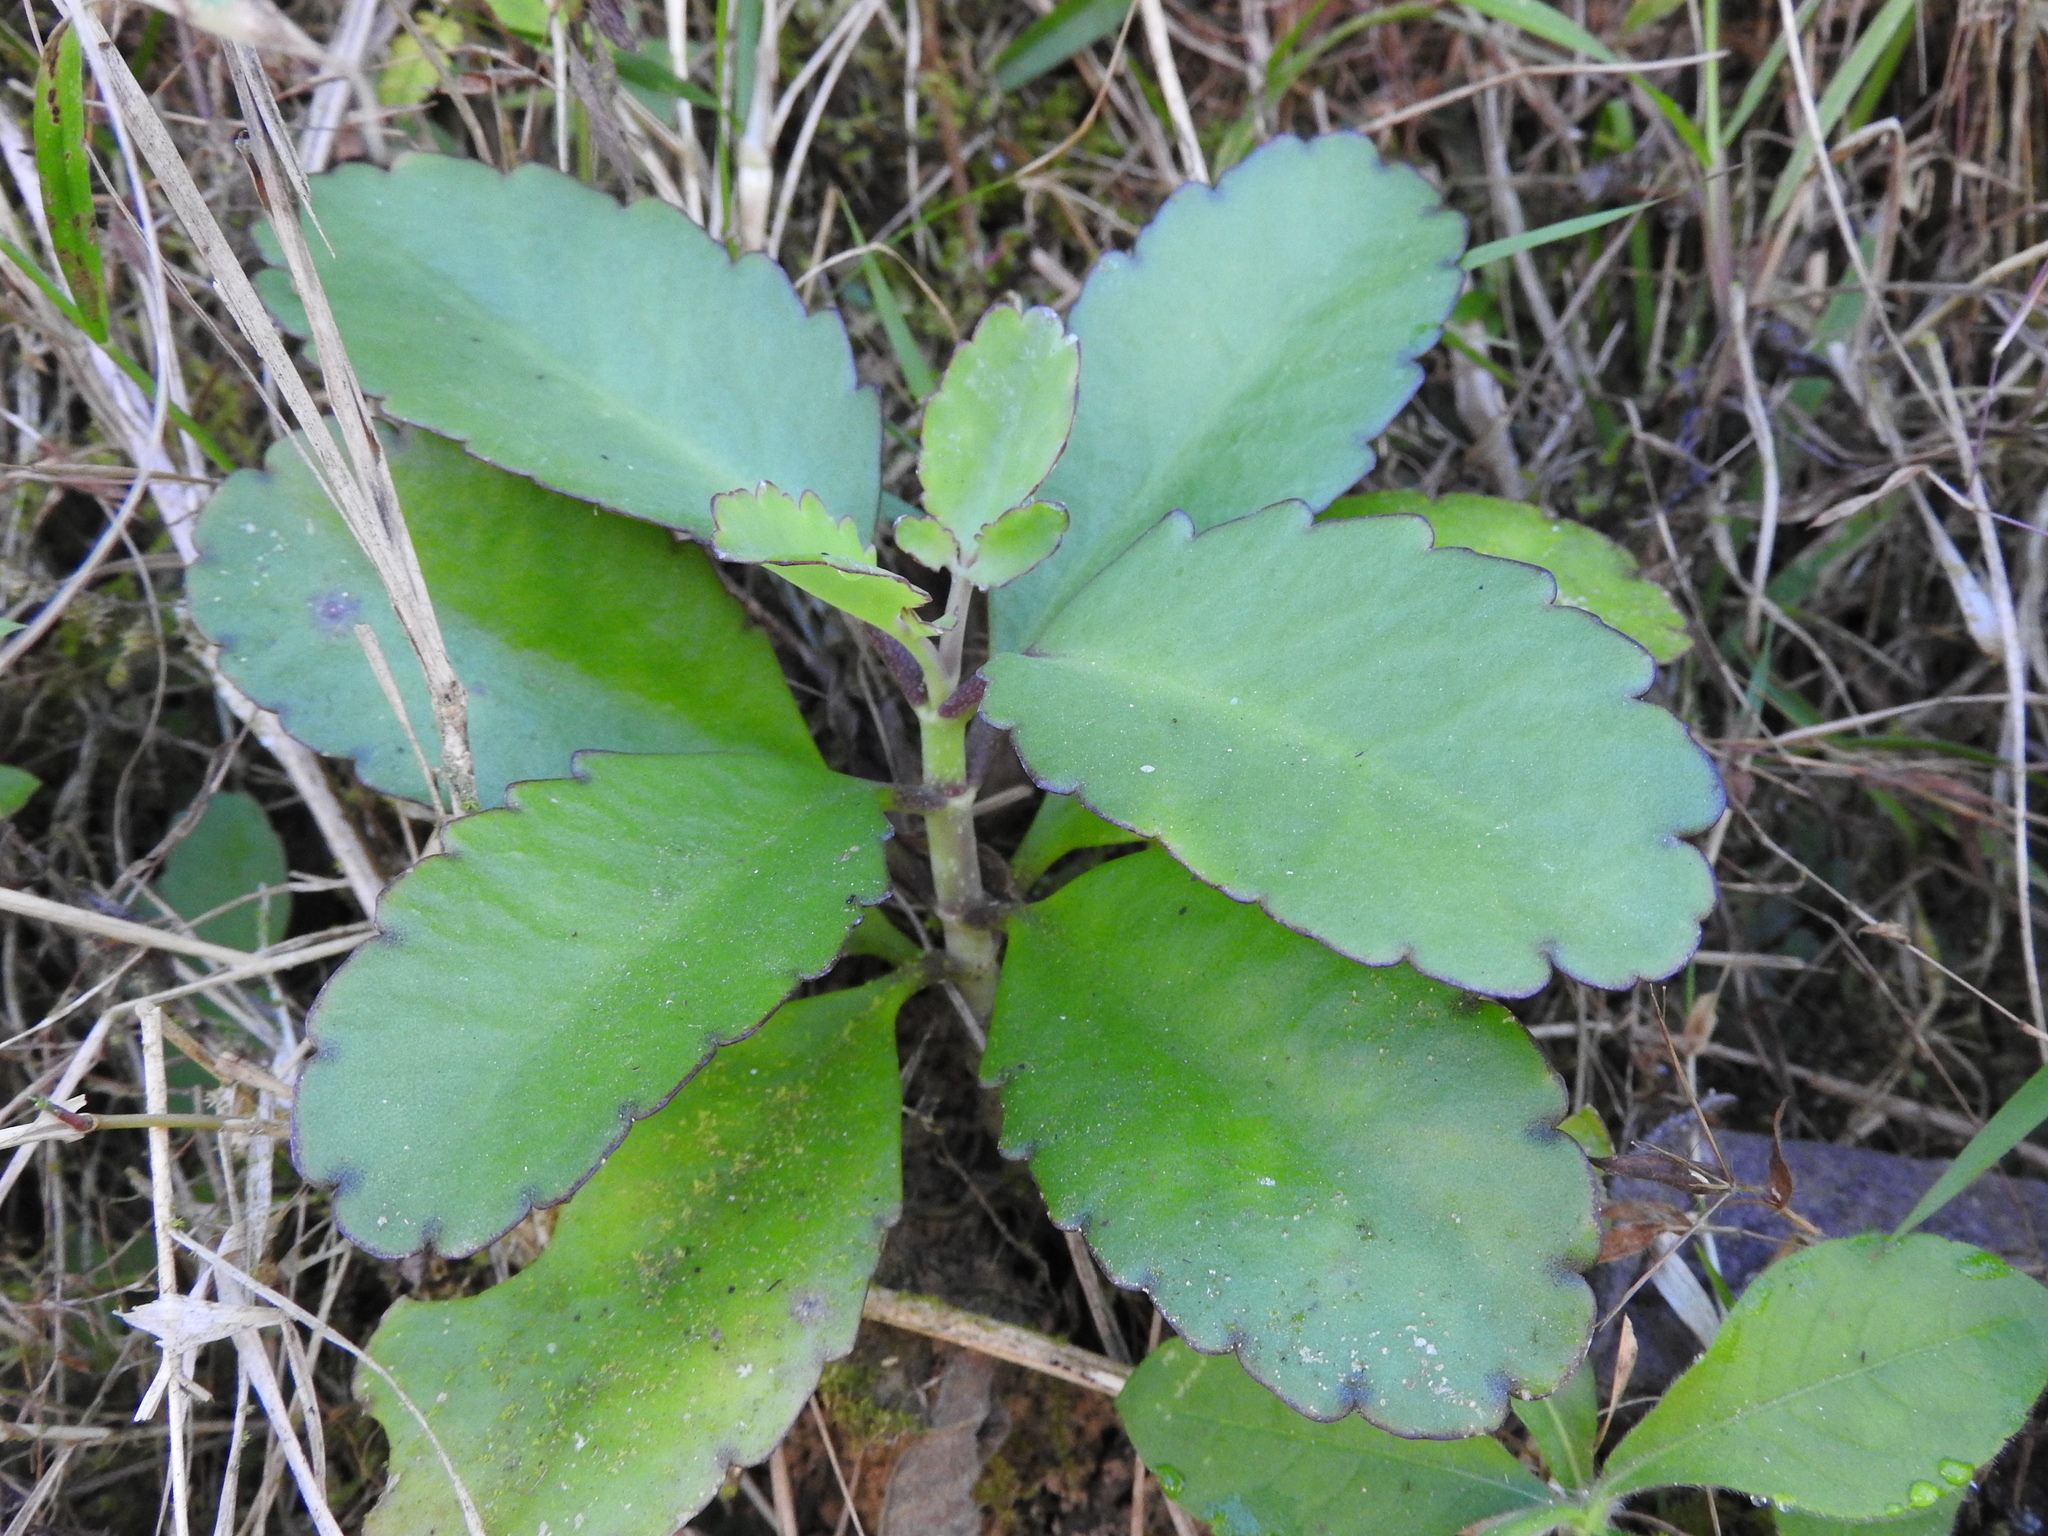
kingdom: Plantae
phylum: Tracheophyta
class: Magnoliopsida
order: Saxifragales
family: Crassulaceae
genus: Kalanchoe
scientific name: Kalanchoe pinnata
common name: Cathedral bells
